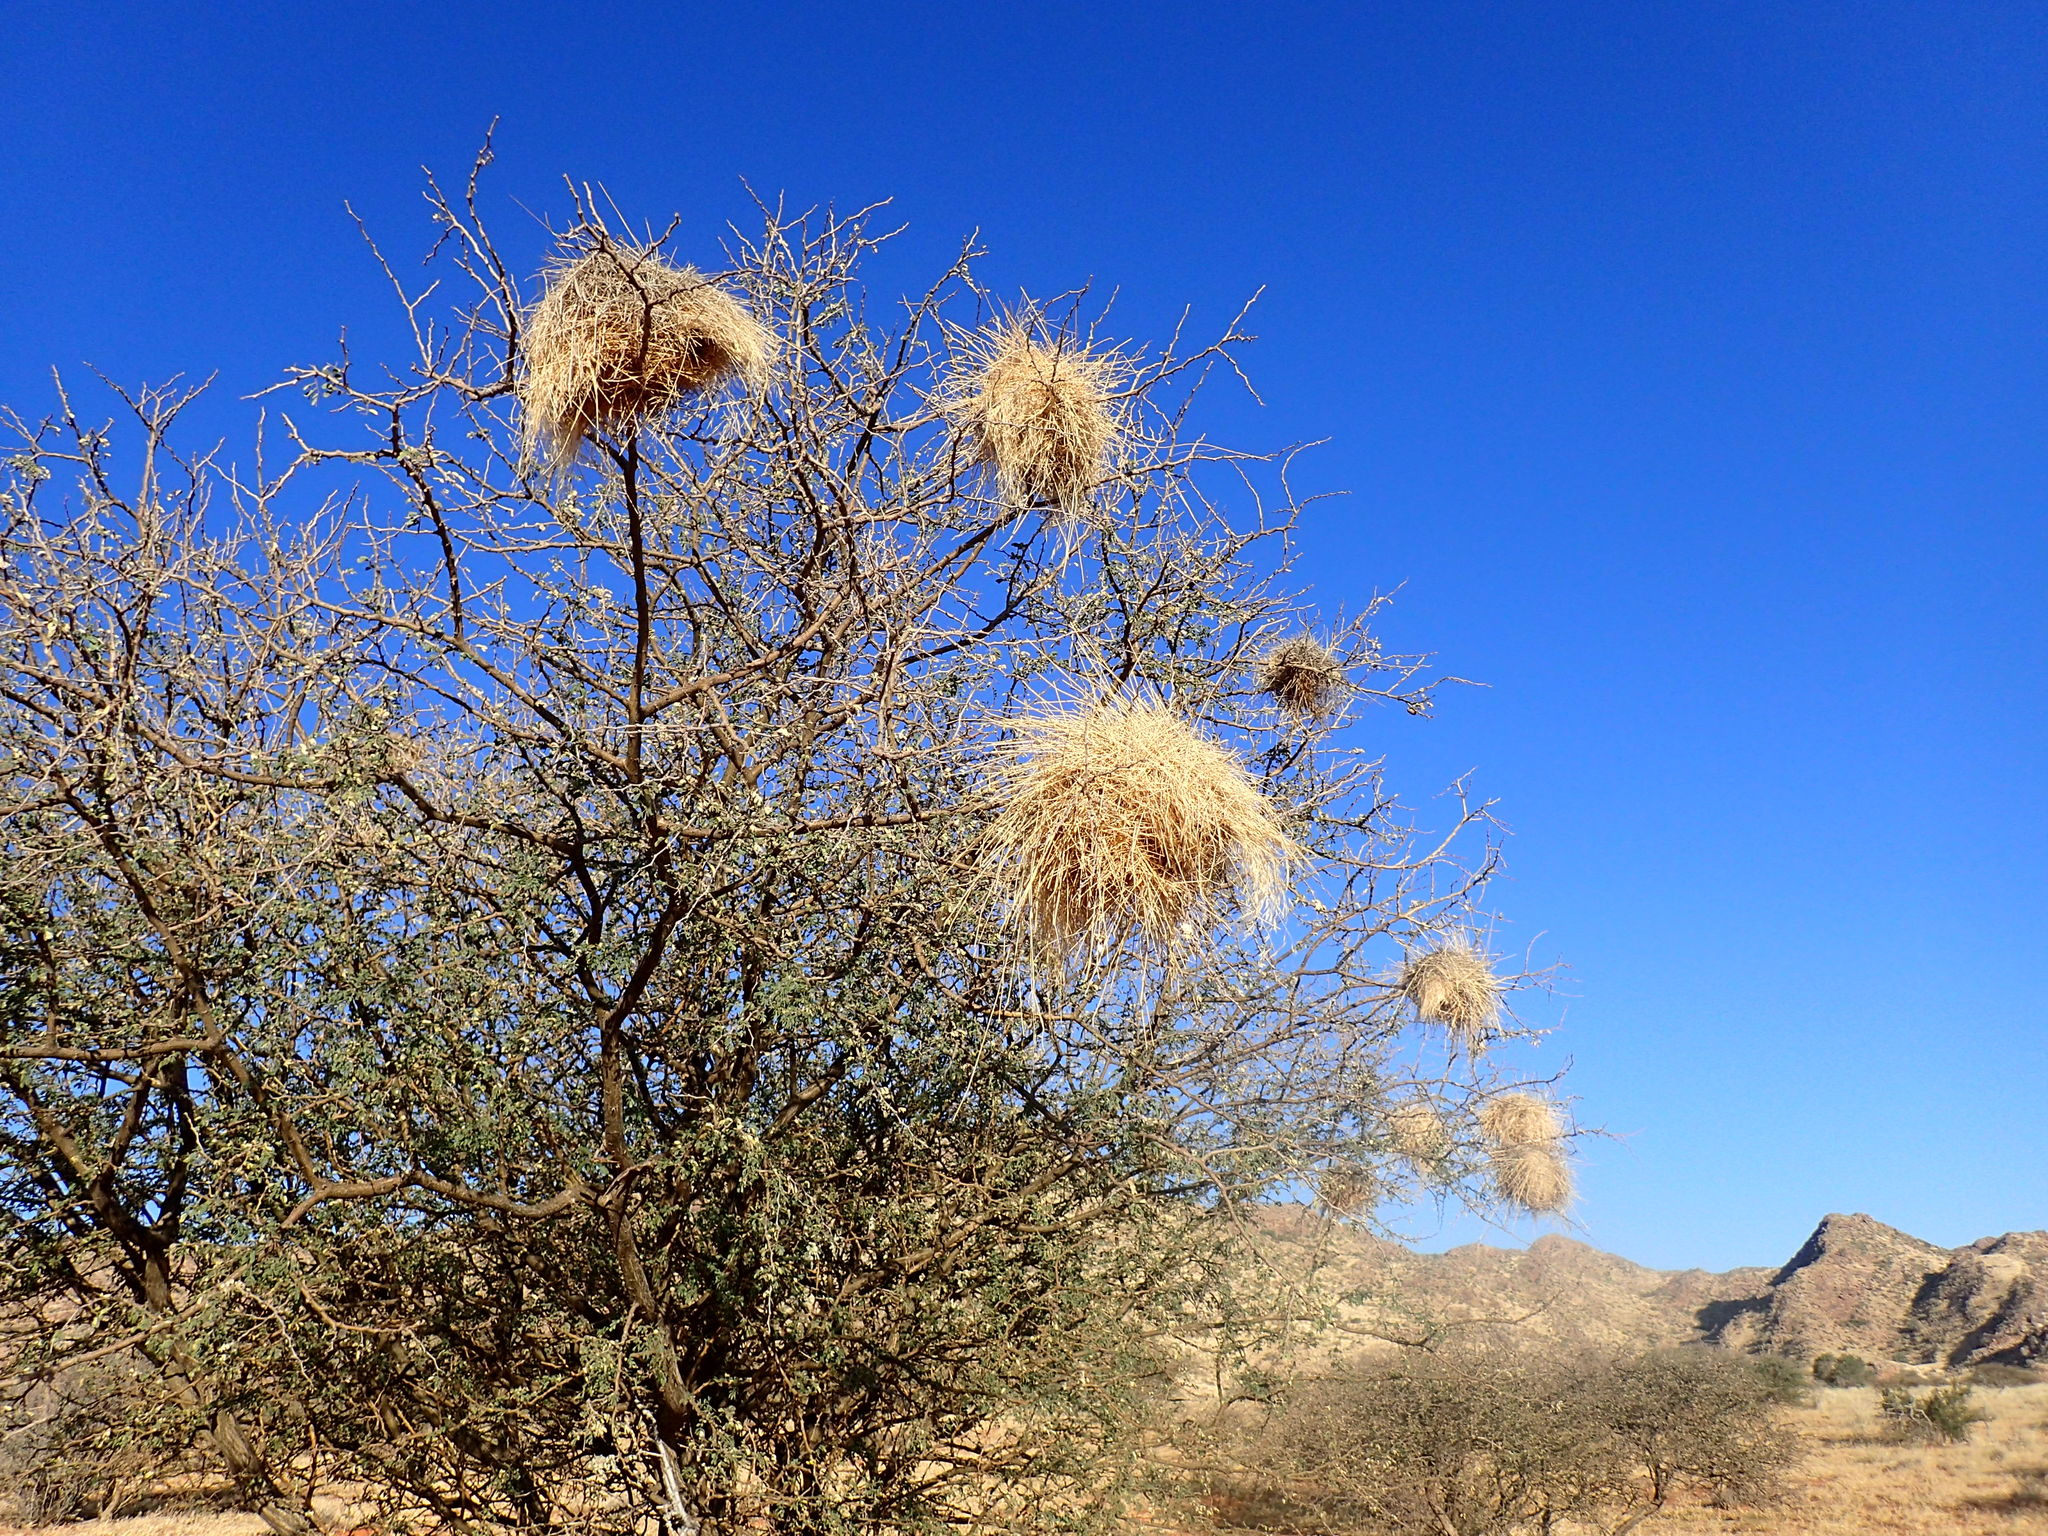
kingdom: Animalia
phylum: Chordata
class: Aves
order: Passeriformes
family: Passeridae
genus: Plocepasser
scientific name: Plocepasser mahali
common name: White-browed sparrow-weaver
